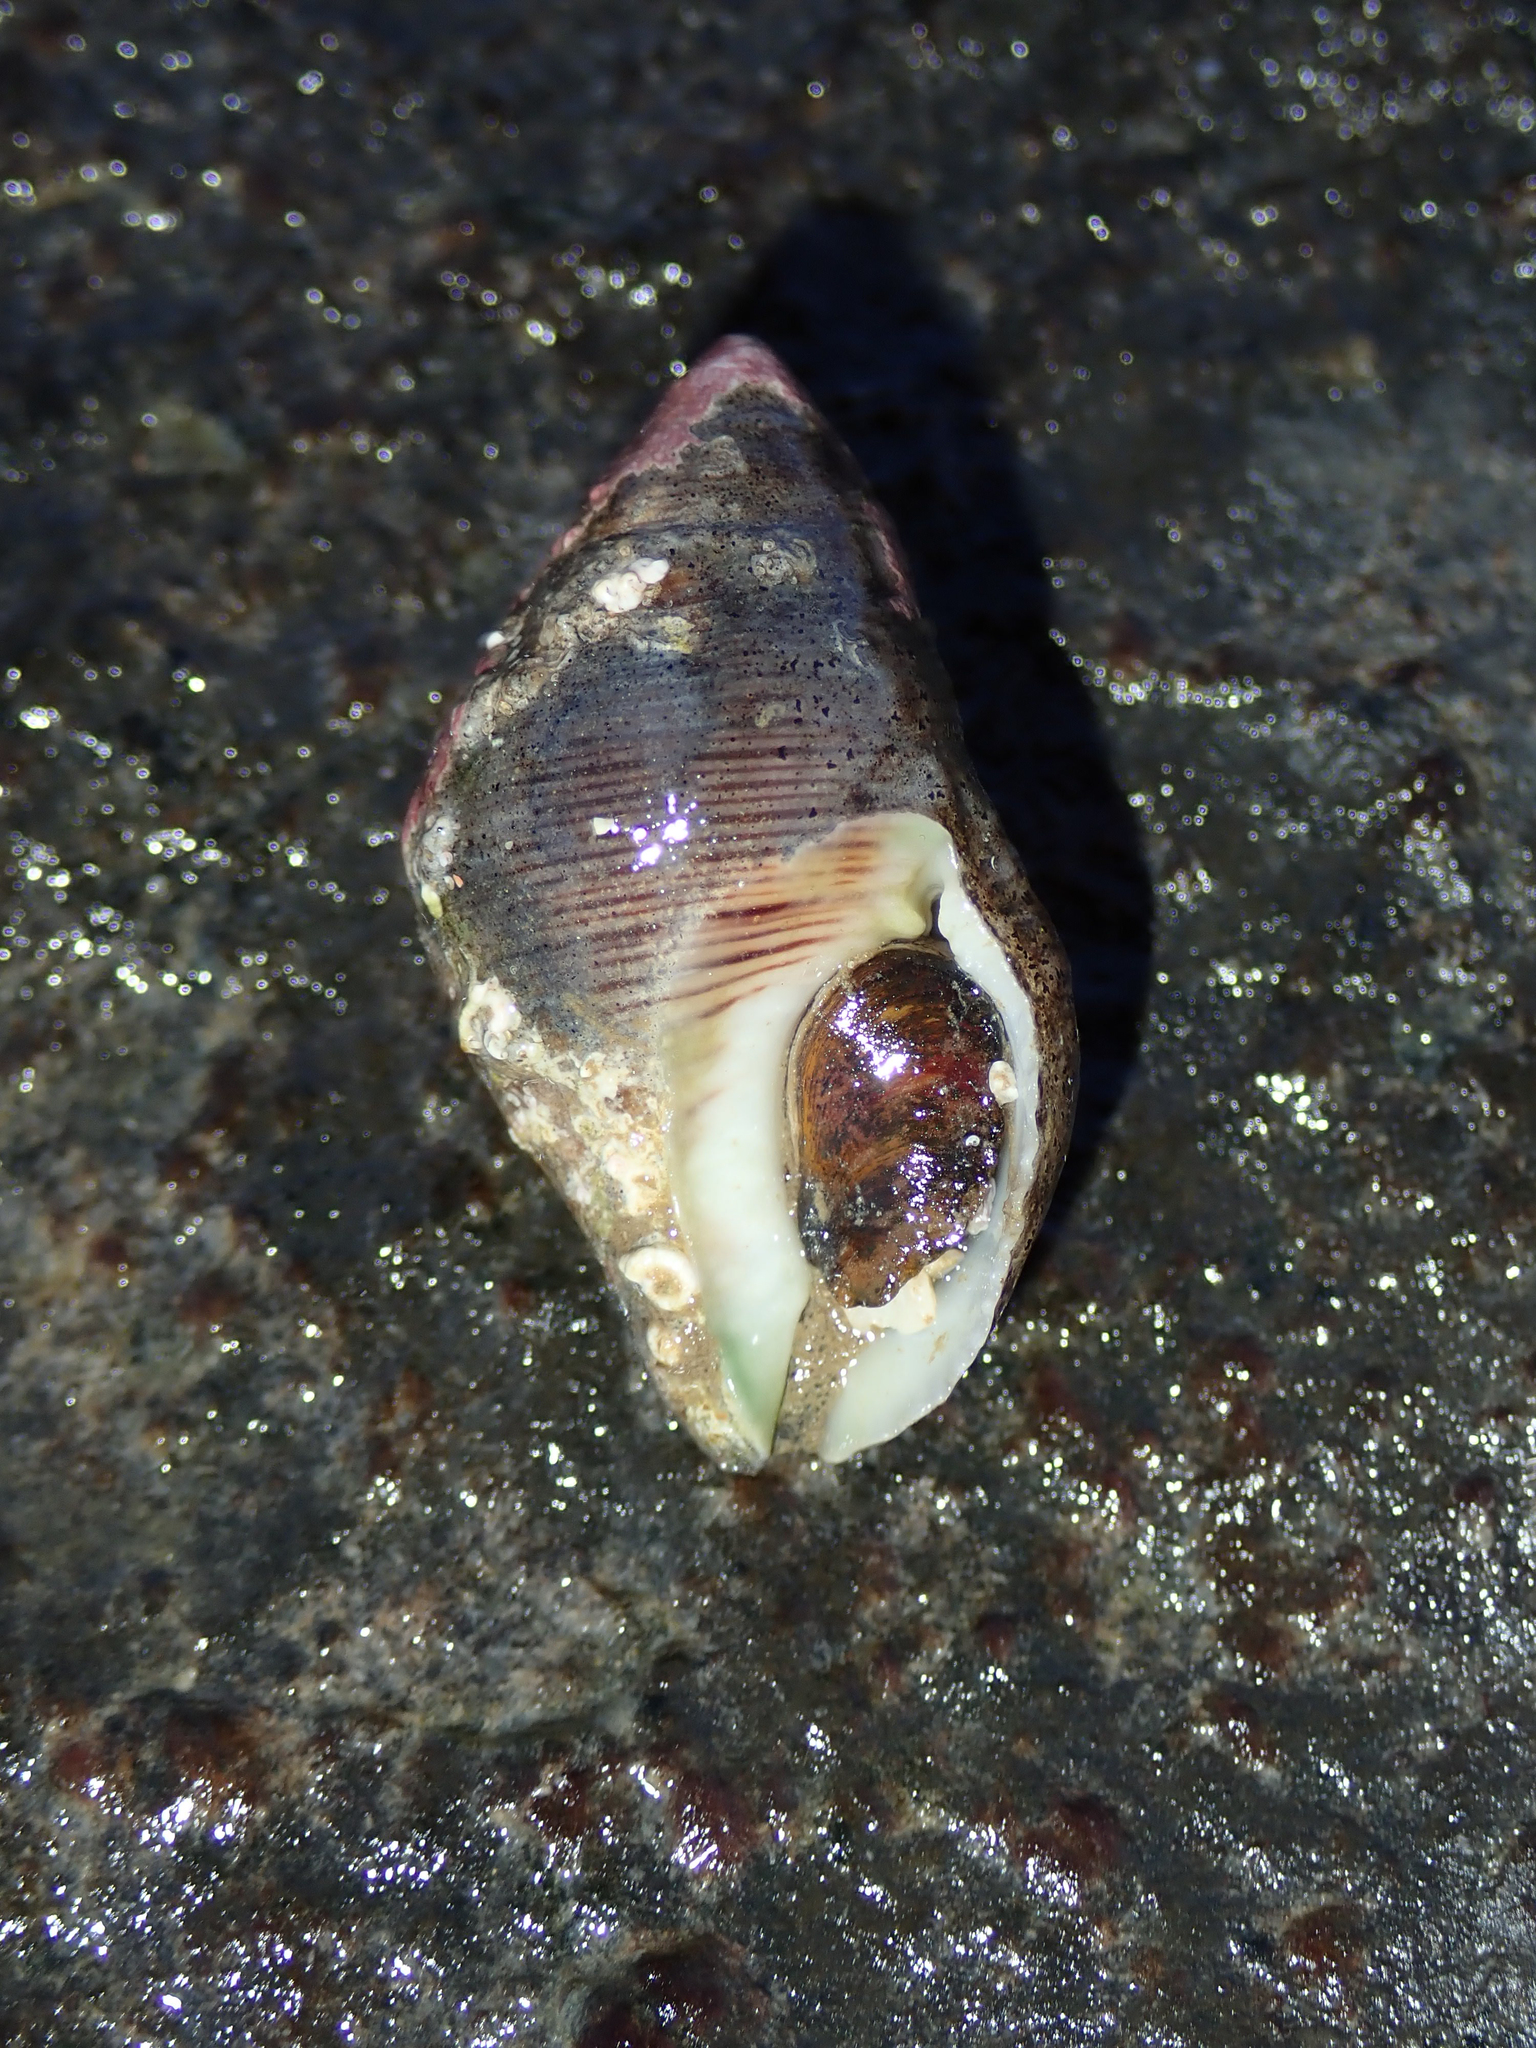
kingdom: Animalia
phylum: Mollusca
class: Gastropoda
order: Neogastropoda
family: Pisaniidae
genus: Gemophos
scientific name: Gemophos viverratus
